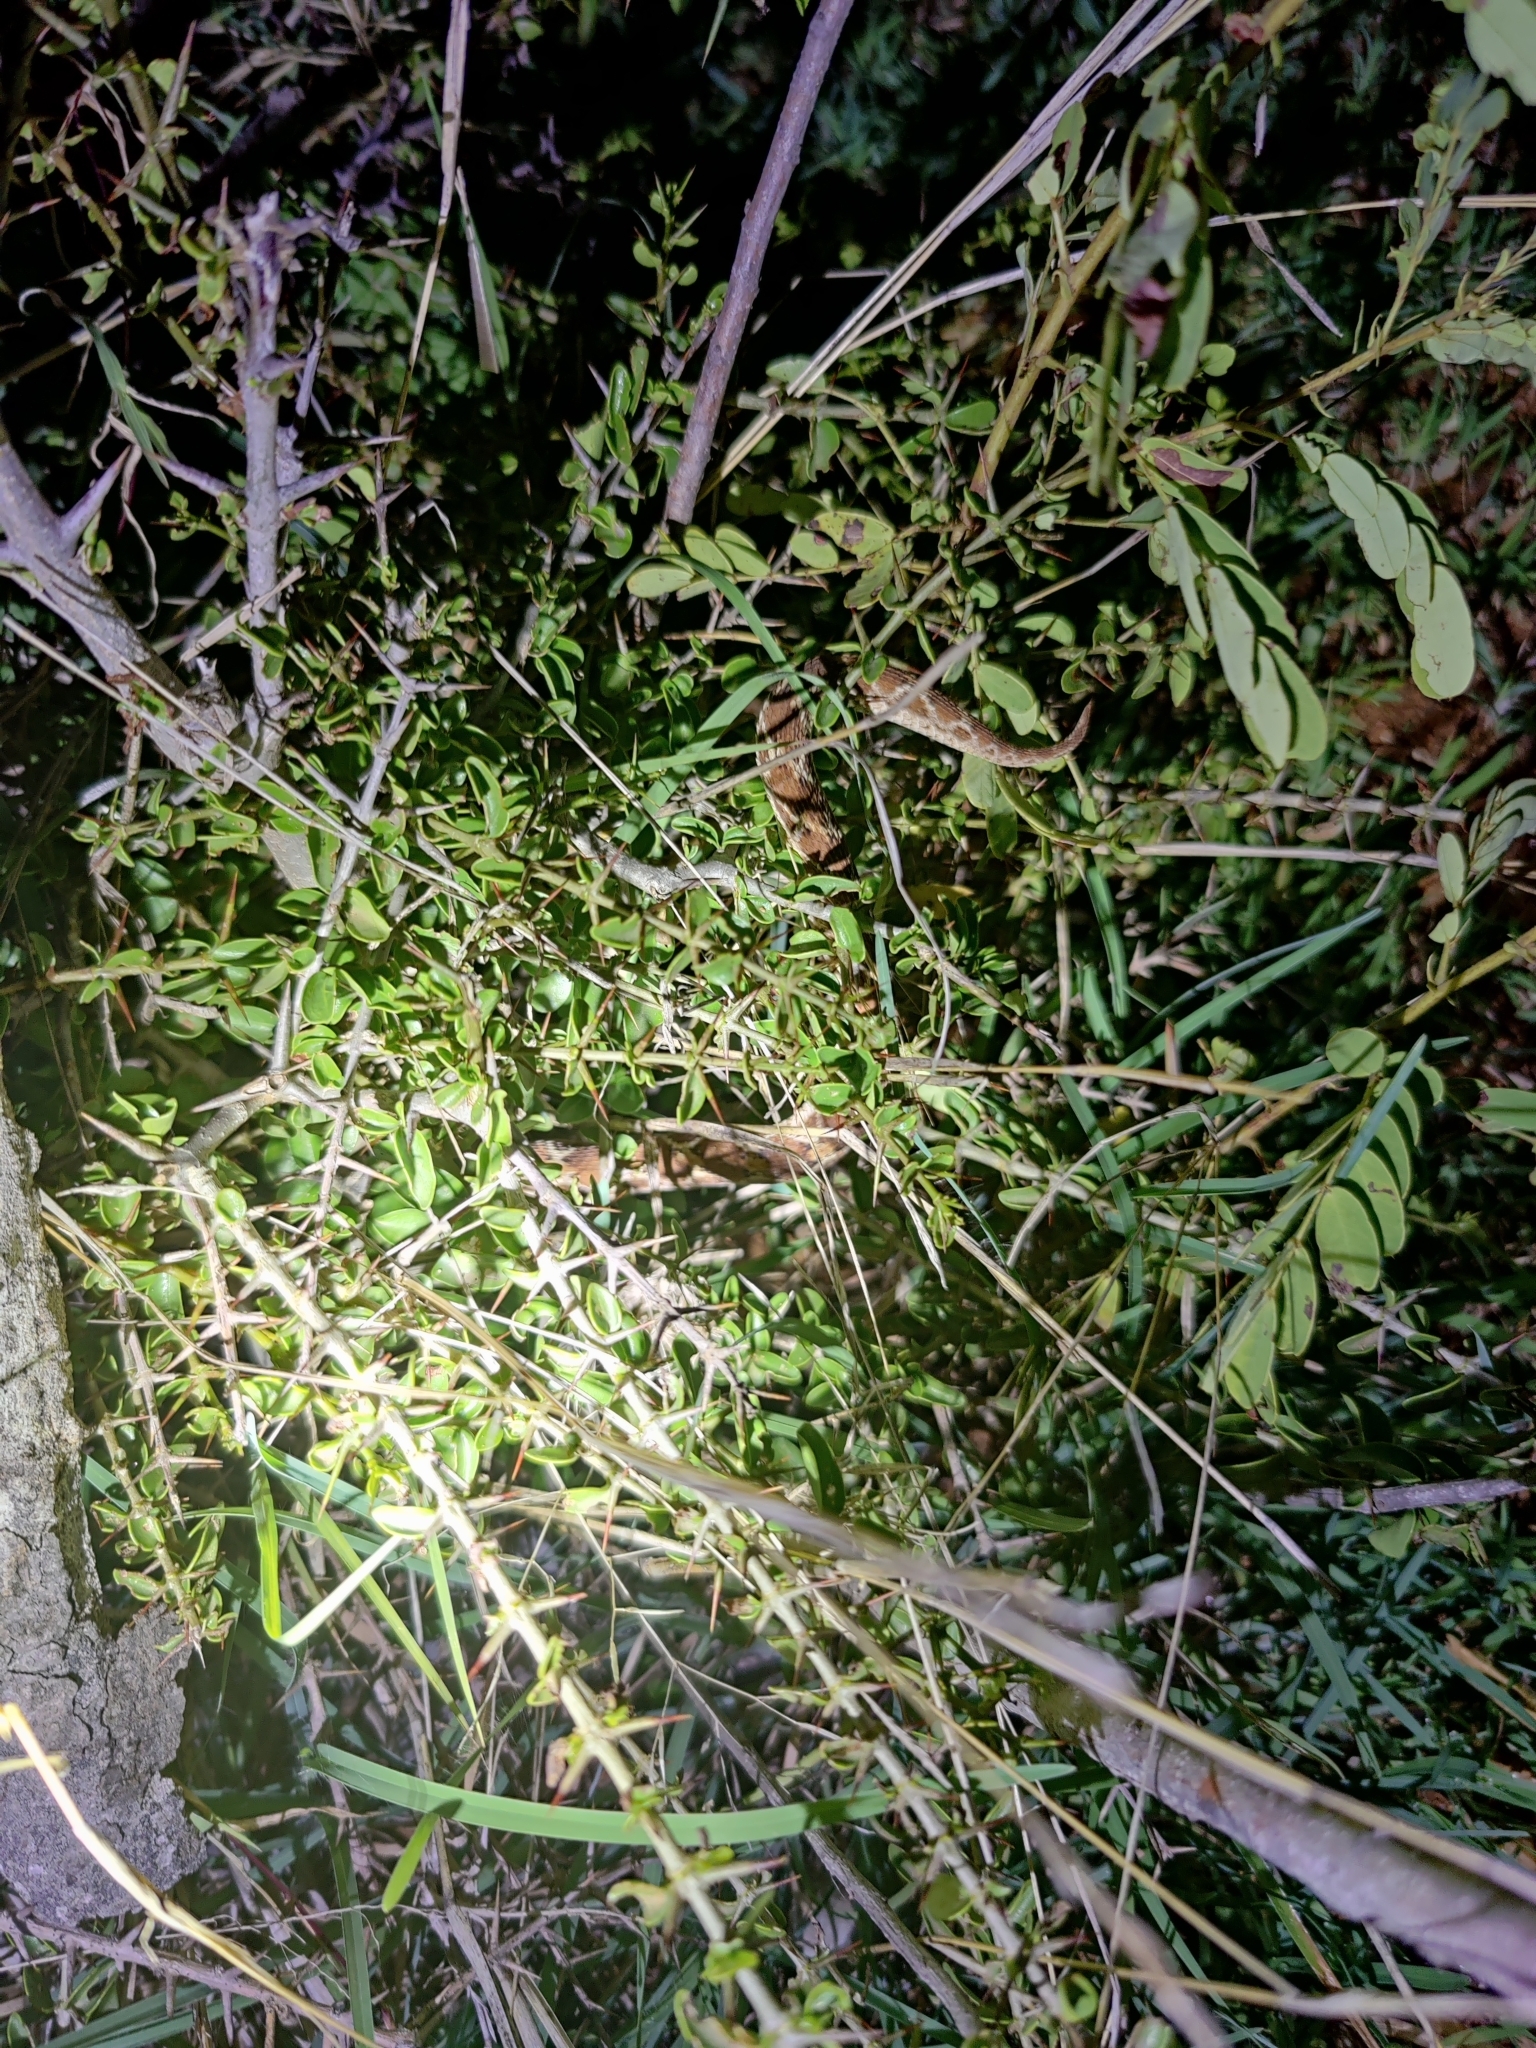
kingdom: Animalia
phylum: Chordata
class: Squamata
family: Viperidae
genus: Echis
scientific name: Echis carinatus
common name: Saw-scaled viper
